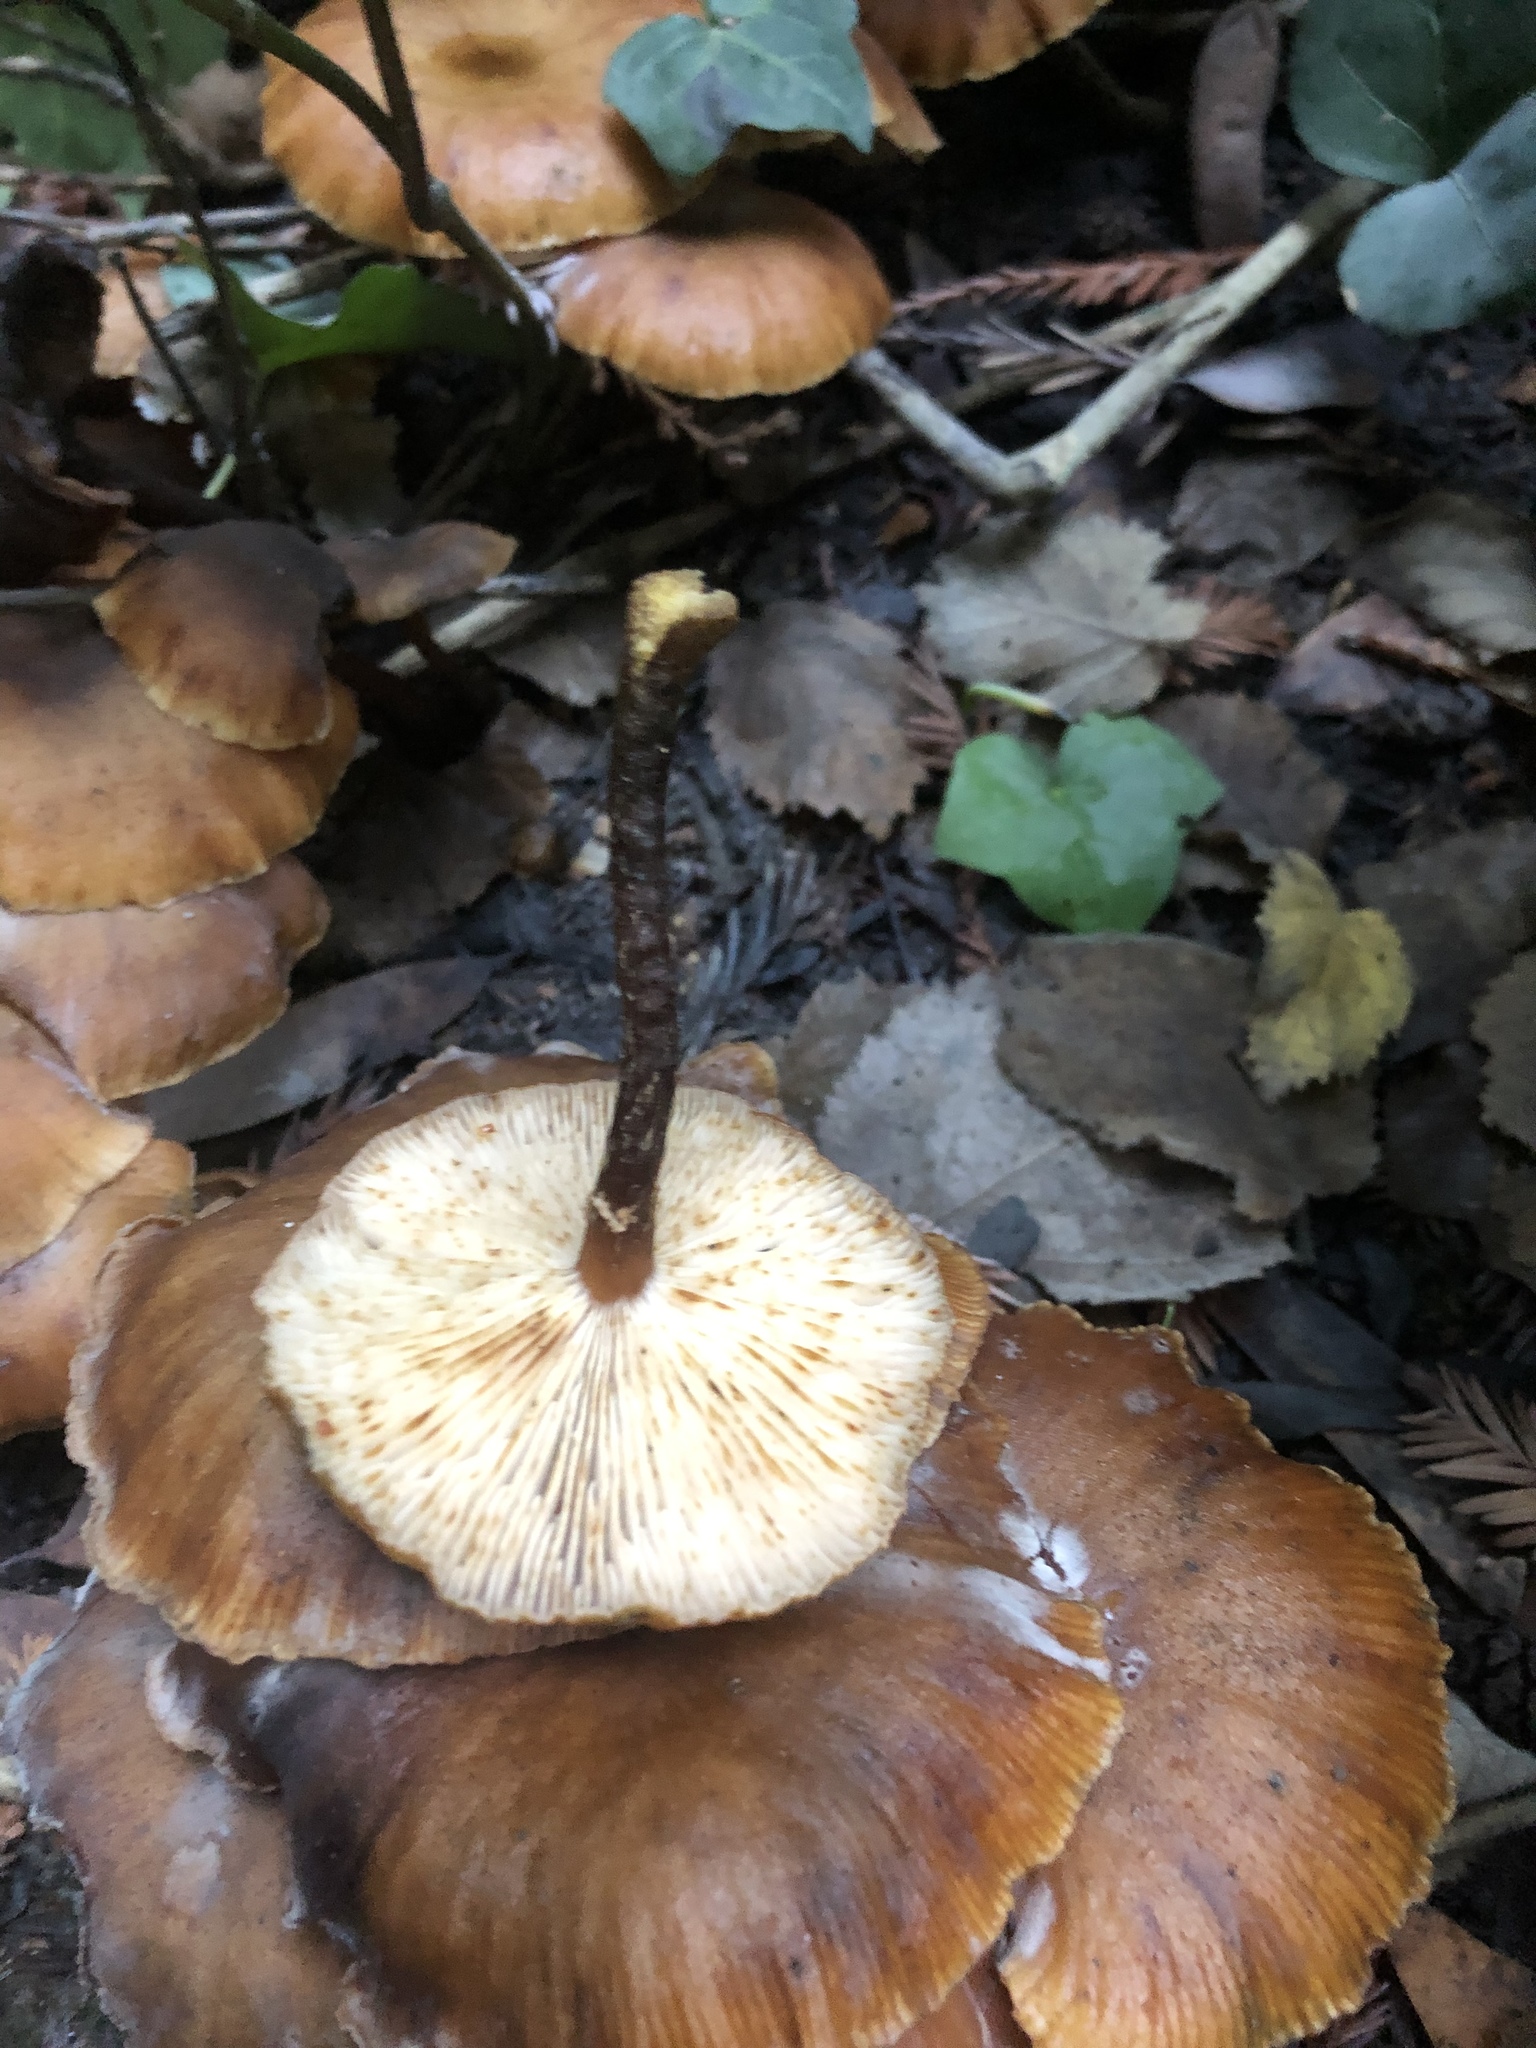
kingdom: Fungi
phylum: Basidiomycota
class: Agaricomycetes
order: Agaricales
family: Omphalotaceae
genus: Gymnopus
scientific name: Gymnopus brassicolens
